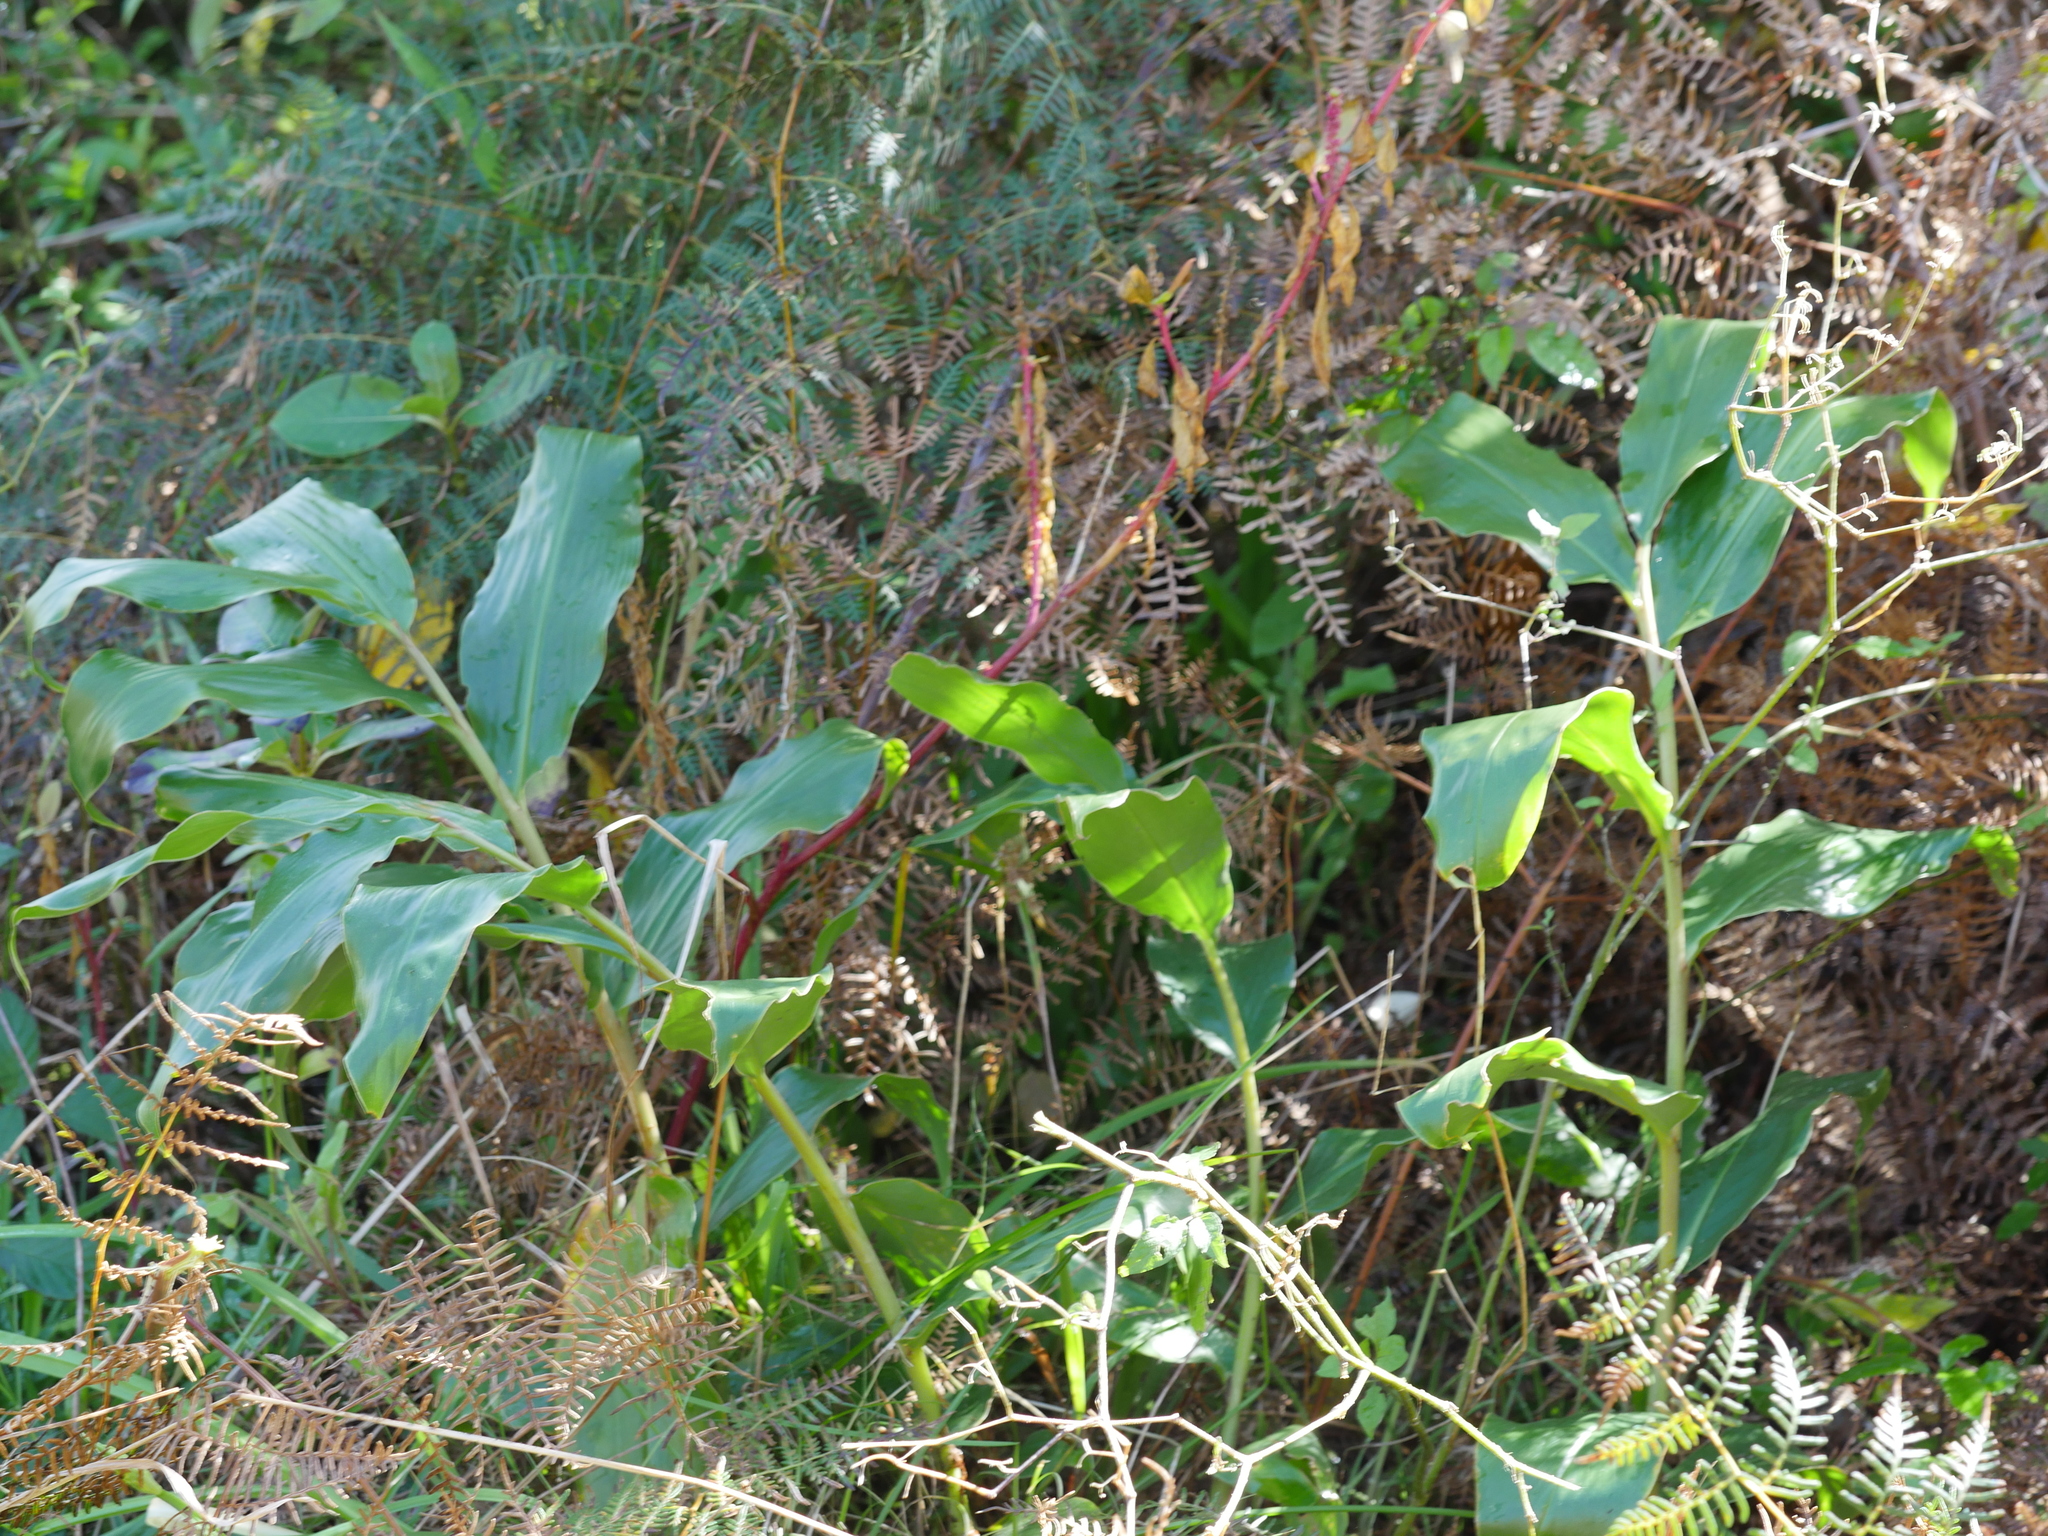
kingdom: Plantae
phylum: Tracheophyta
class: Liliopsida
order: Zingiberales
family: Zingiberaceae
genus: Hedychium
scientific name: Hedychium gardnerianum
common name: Himalayan ginger
